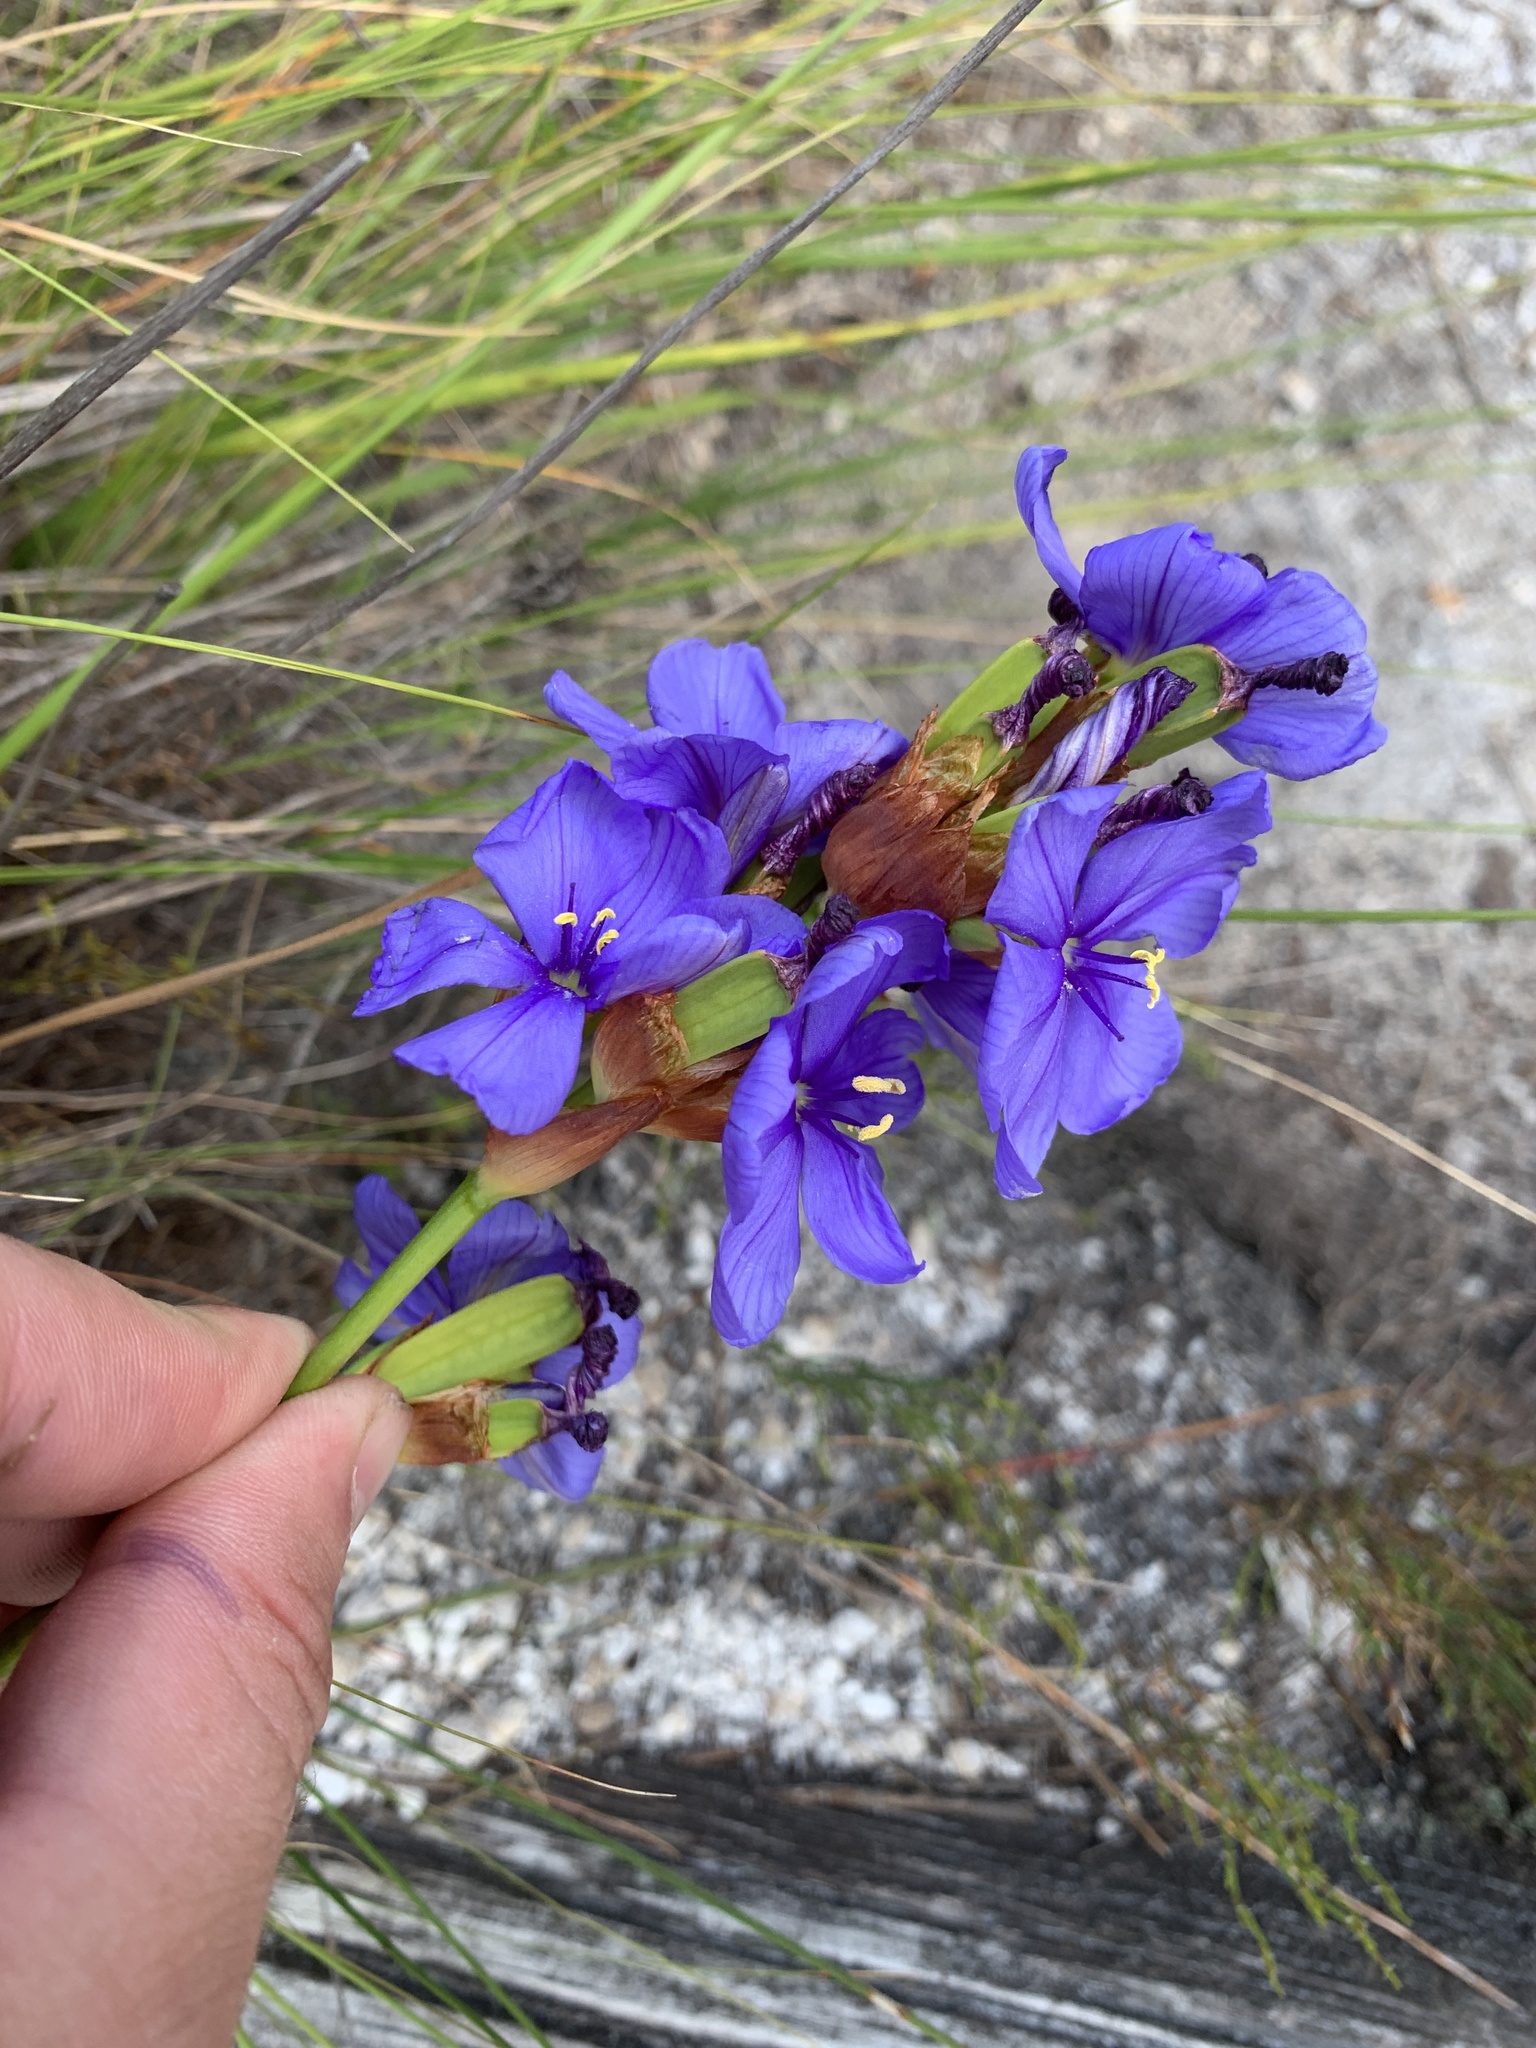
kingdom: Plantae
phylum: Tracheophyta
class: Liliopsida
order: Asparagales
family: Iridaceae
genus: Aristea
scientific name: Aristea juncifolia
